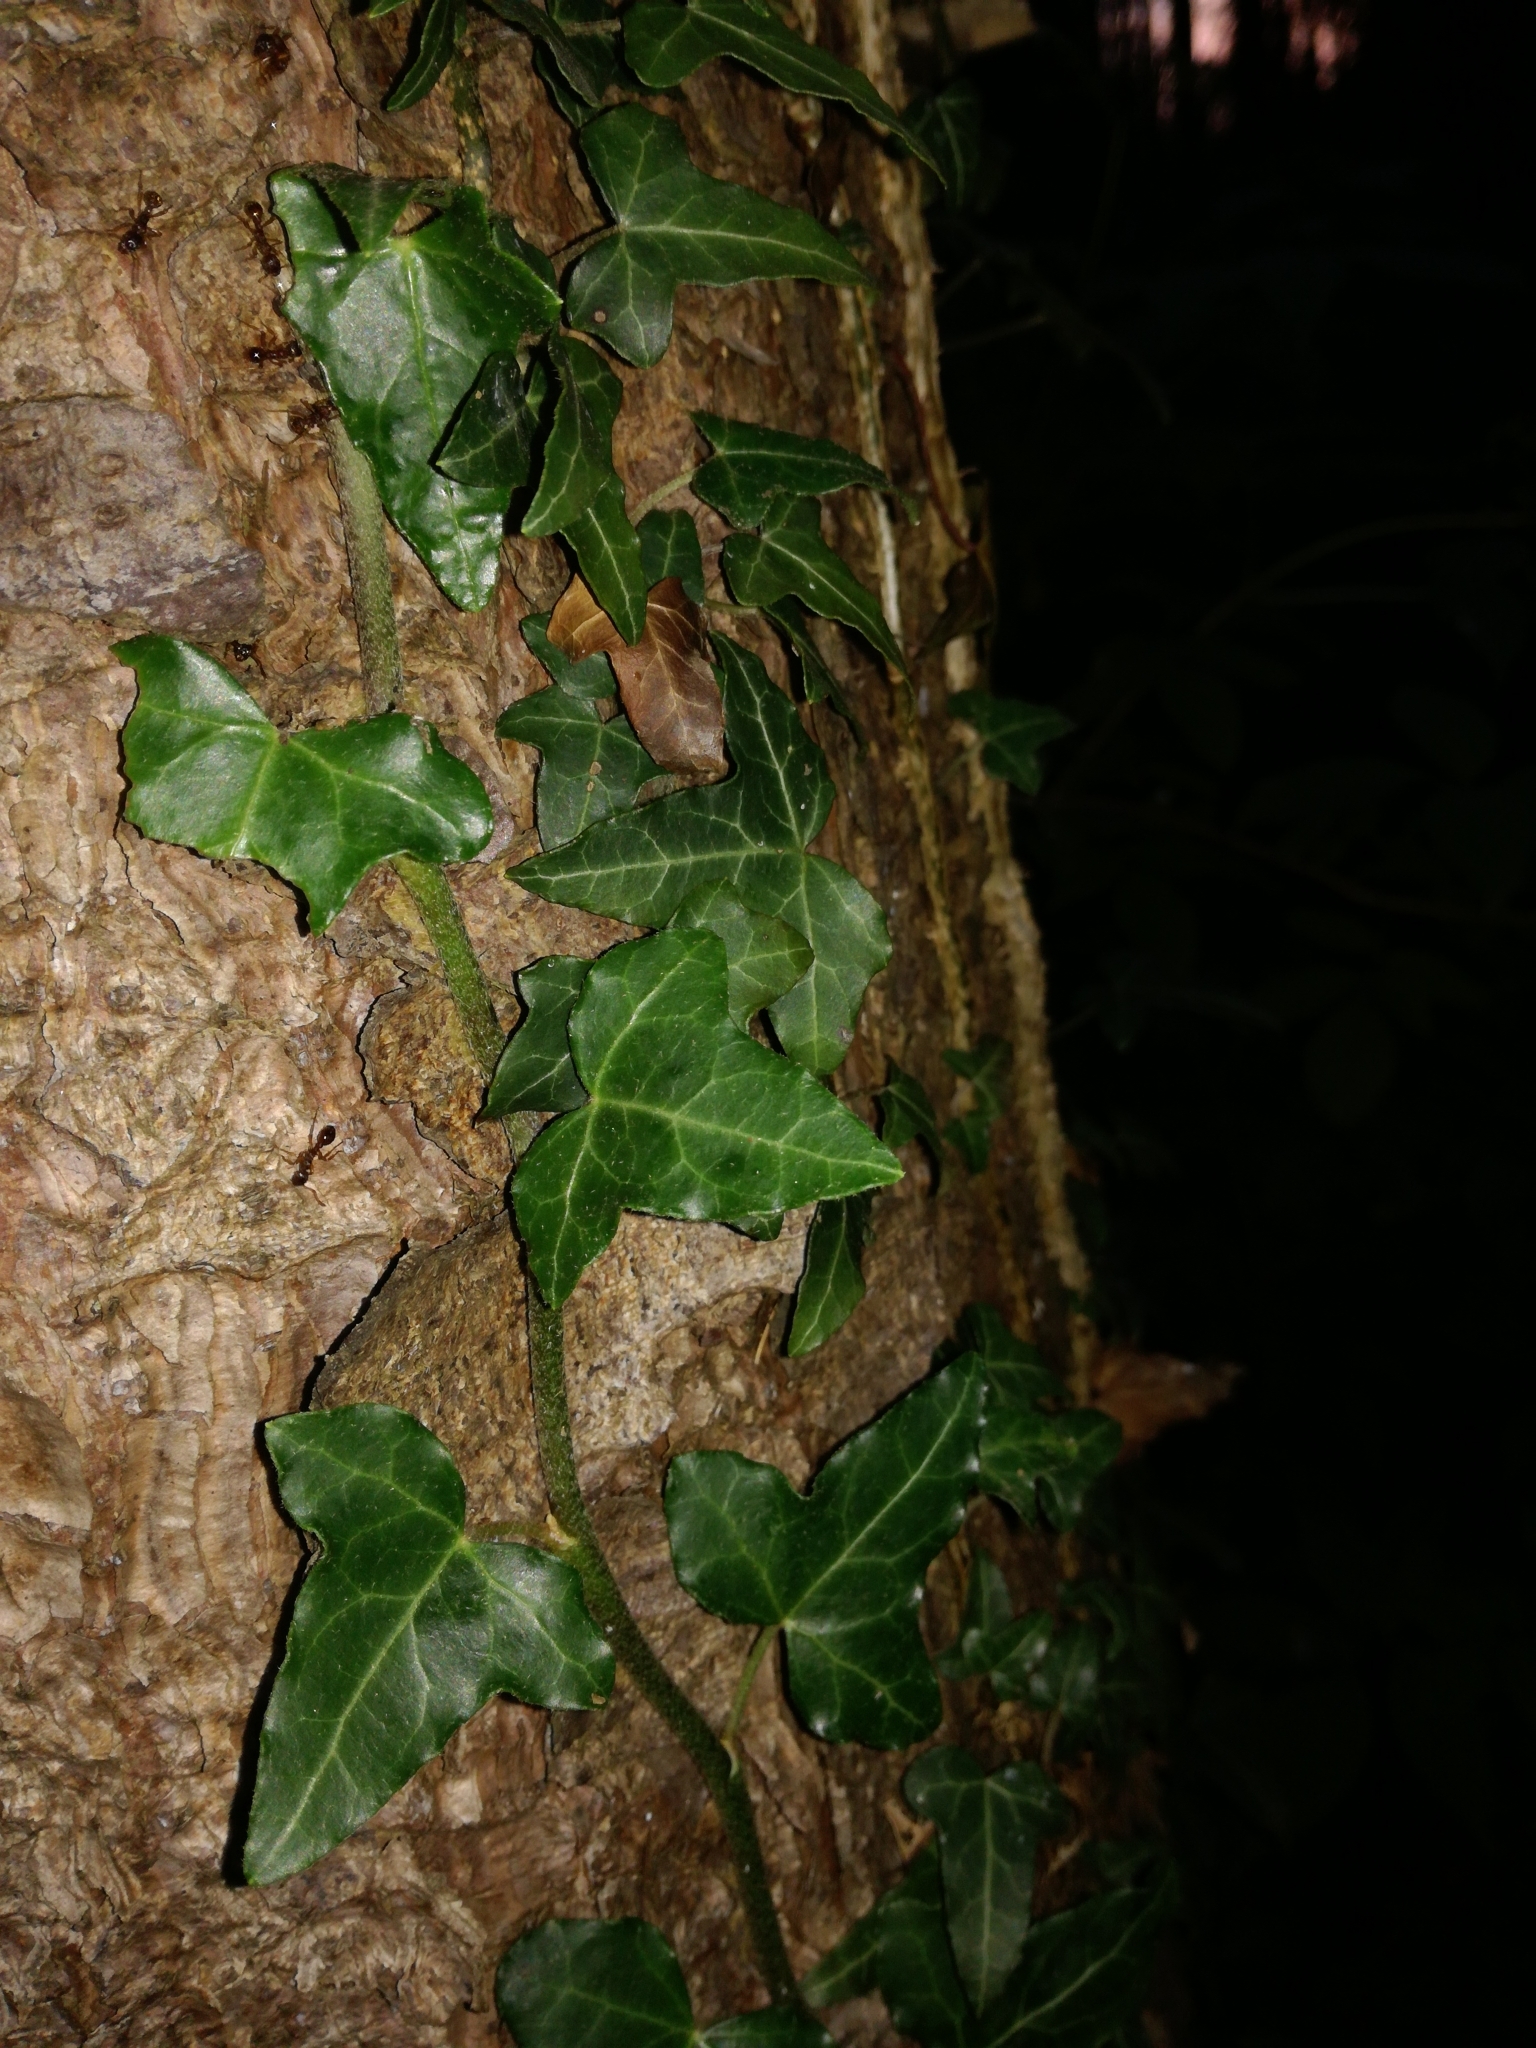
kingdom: Plantae
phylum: Tracheophyta
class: Magnoliopsida
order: Apiales
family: Araliaceae
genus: Hedera
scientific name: Hedera helix
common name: Ivy
